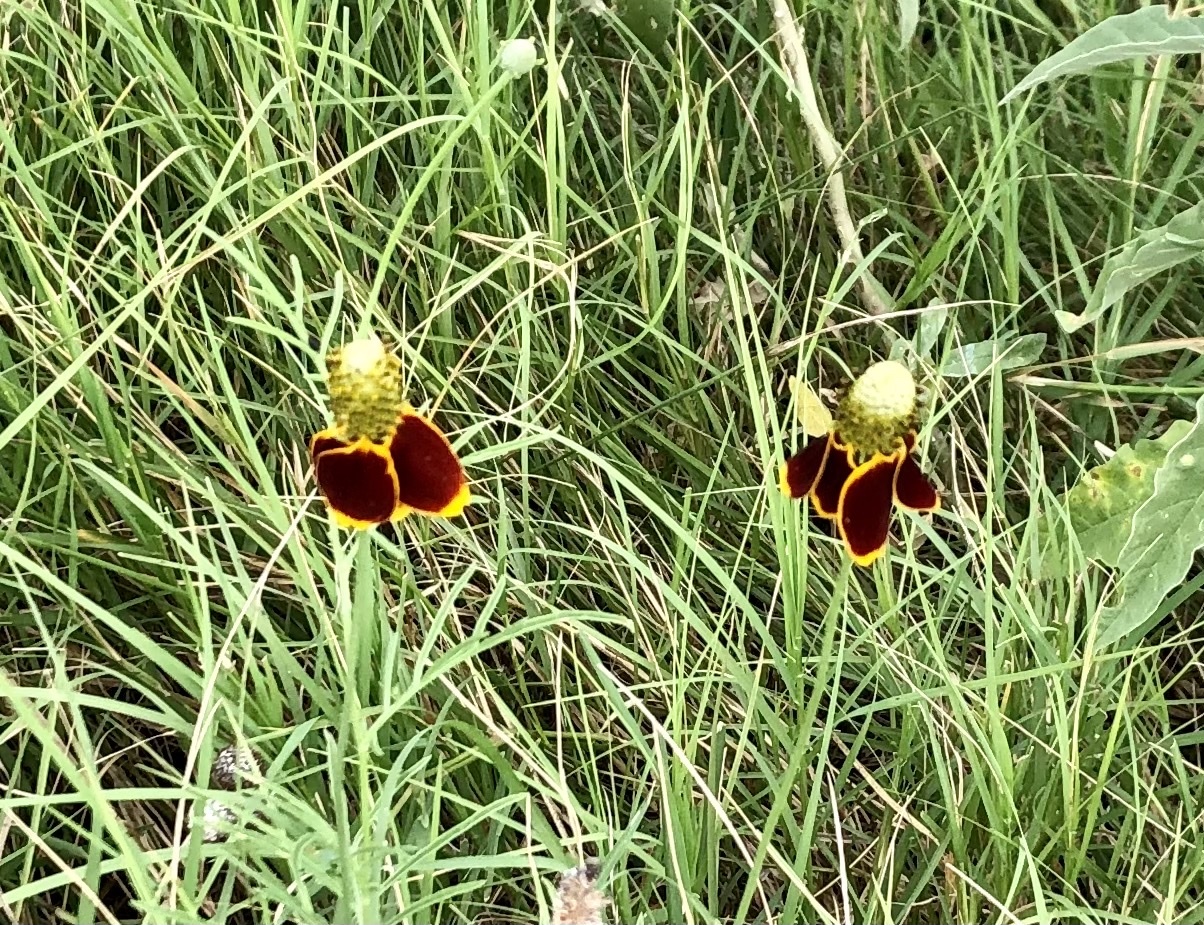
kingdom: Plantae
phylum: Tracheophyta
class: Magnoliopsida
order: Asterales
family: Asteraceae
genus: Ratibida
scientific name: Ratibida columnifera
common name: Prairie coneflower
